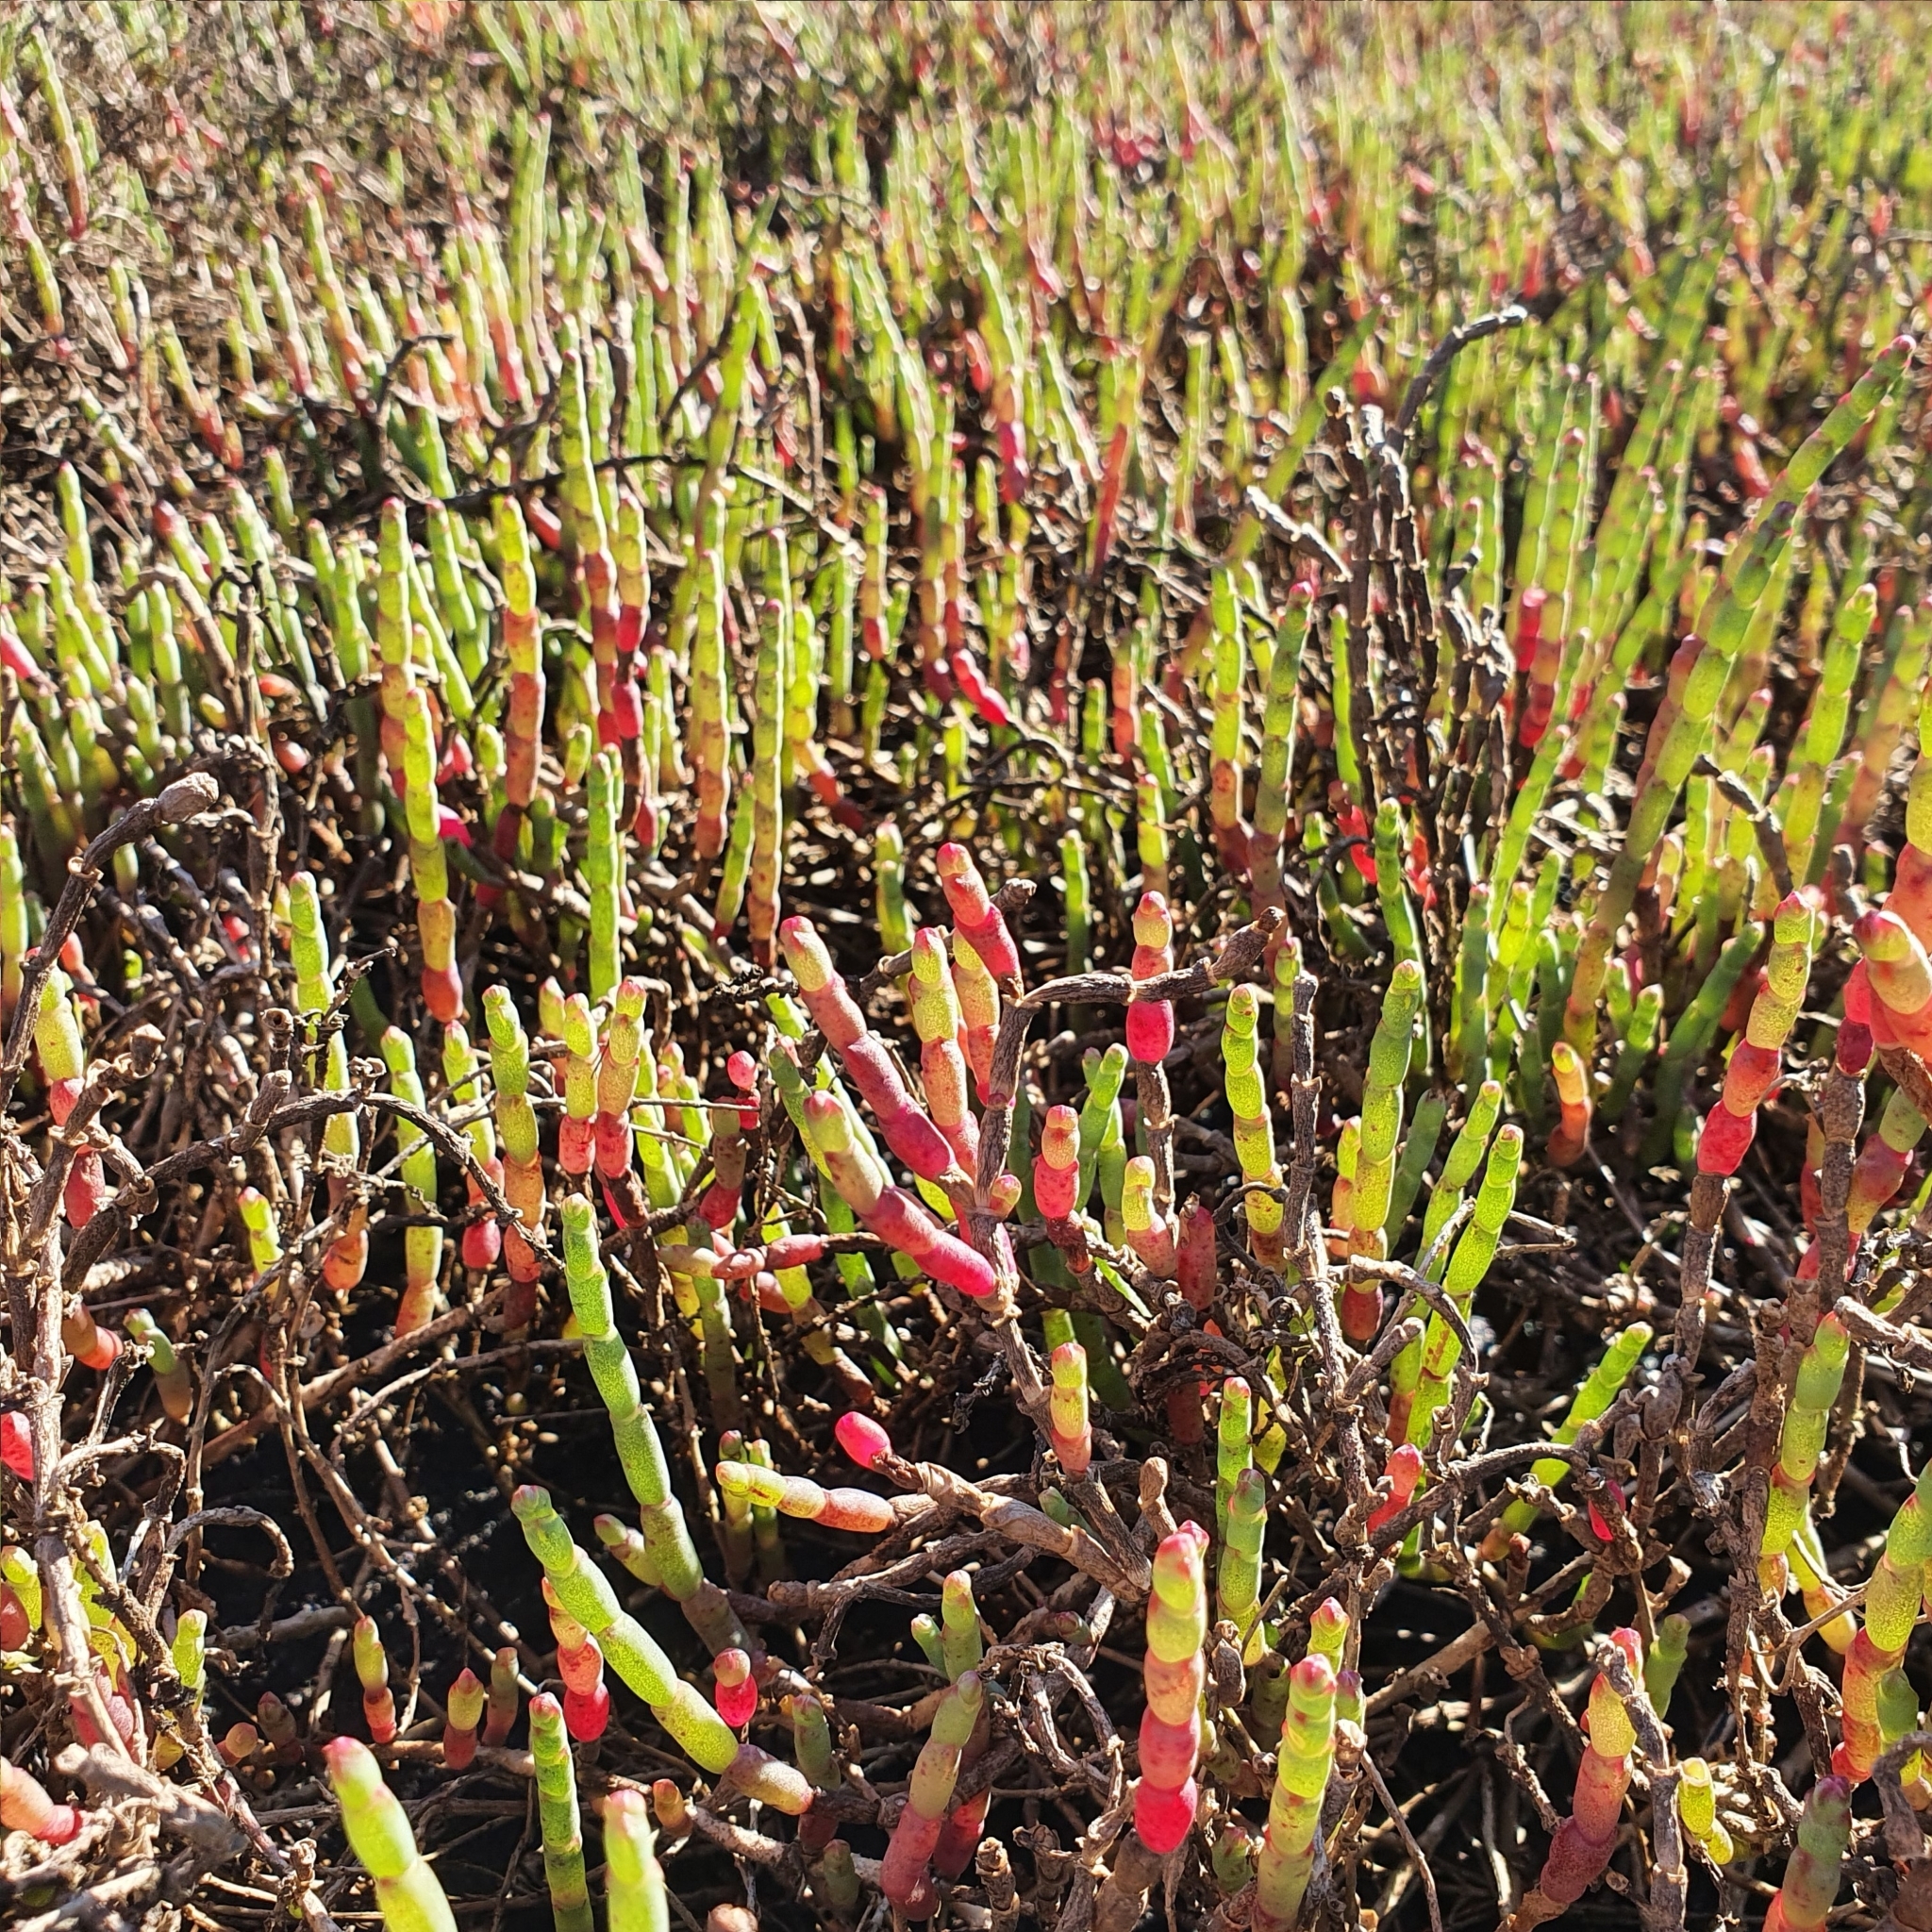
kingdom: Plantae
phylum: Tracheophyta
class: Magnoliopsida
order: Caryophyllales
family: Amaranthaceae
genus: Salicornia
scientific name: Salicornia quinqueflora
